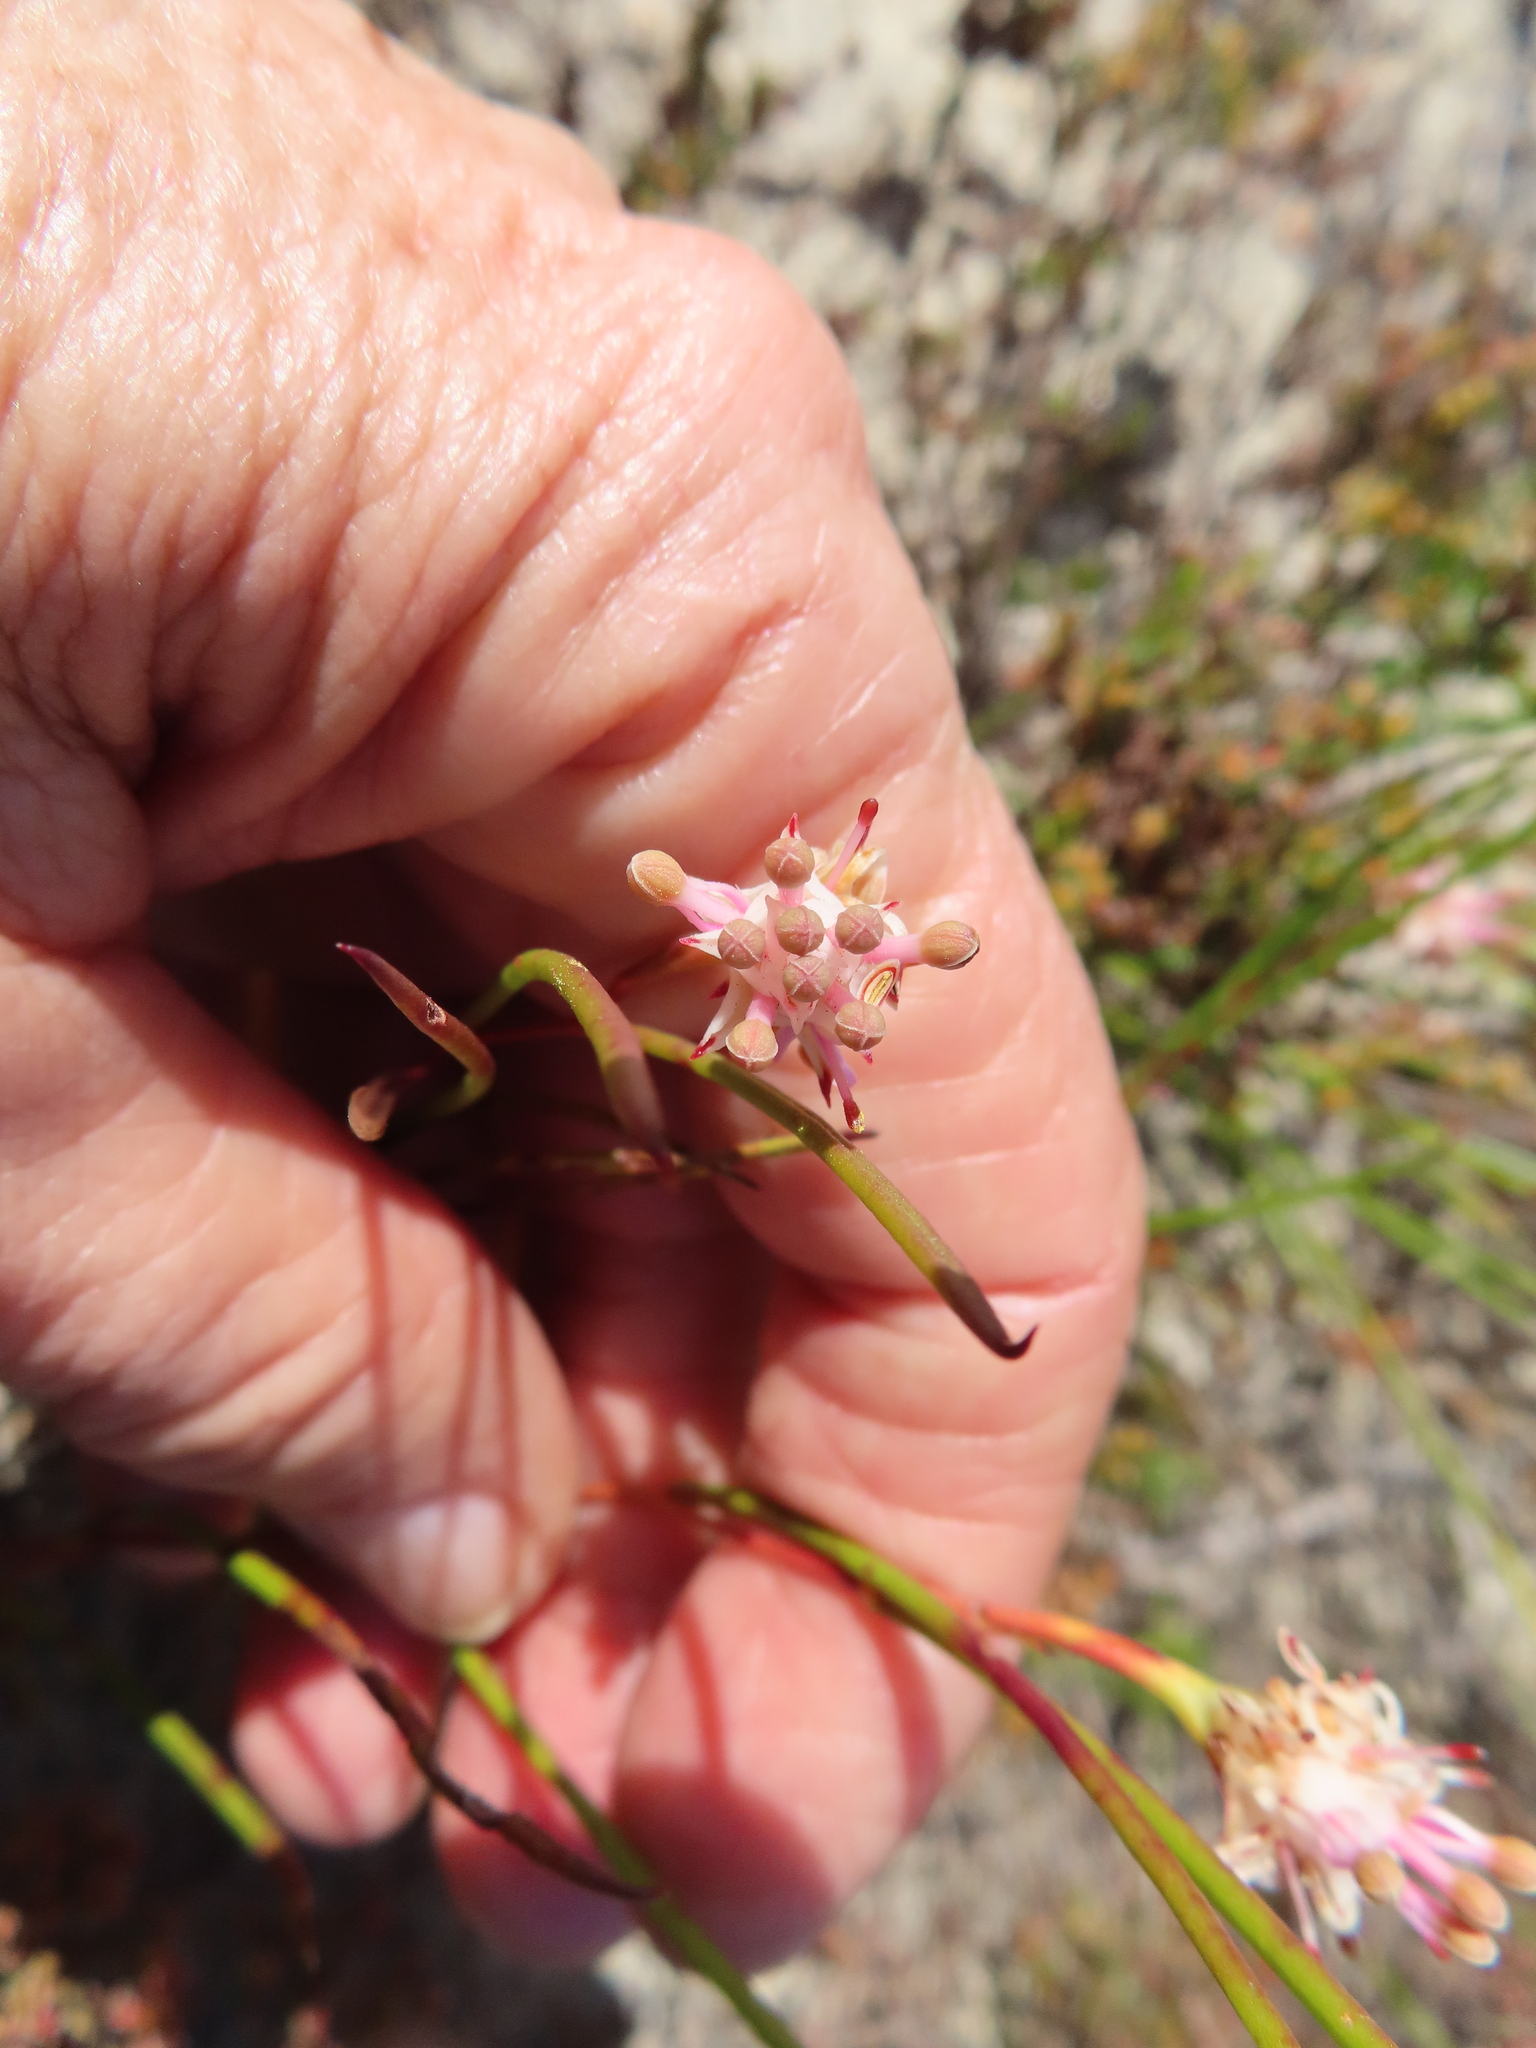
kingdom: Plantae
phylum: Tracheophyta
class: Magnoliopsida
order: Proteales
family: Proteaceae
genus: Serruria
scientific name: Serruria flagellifolia
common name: Houwhoek spiderhead
